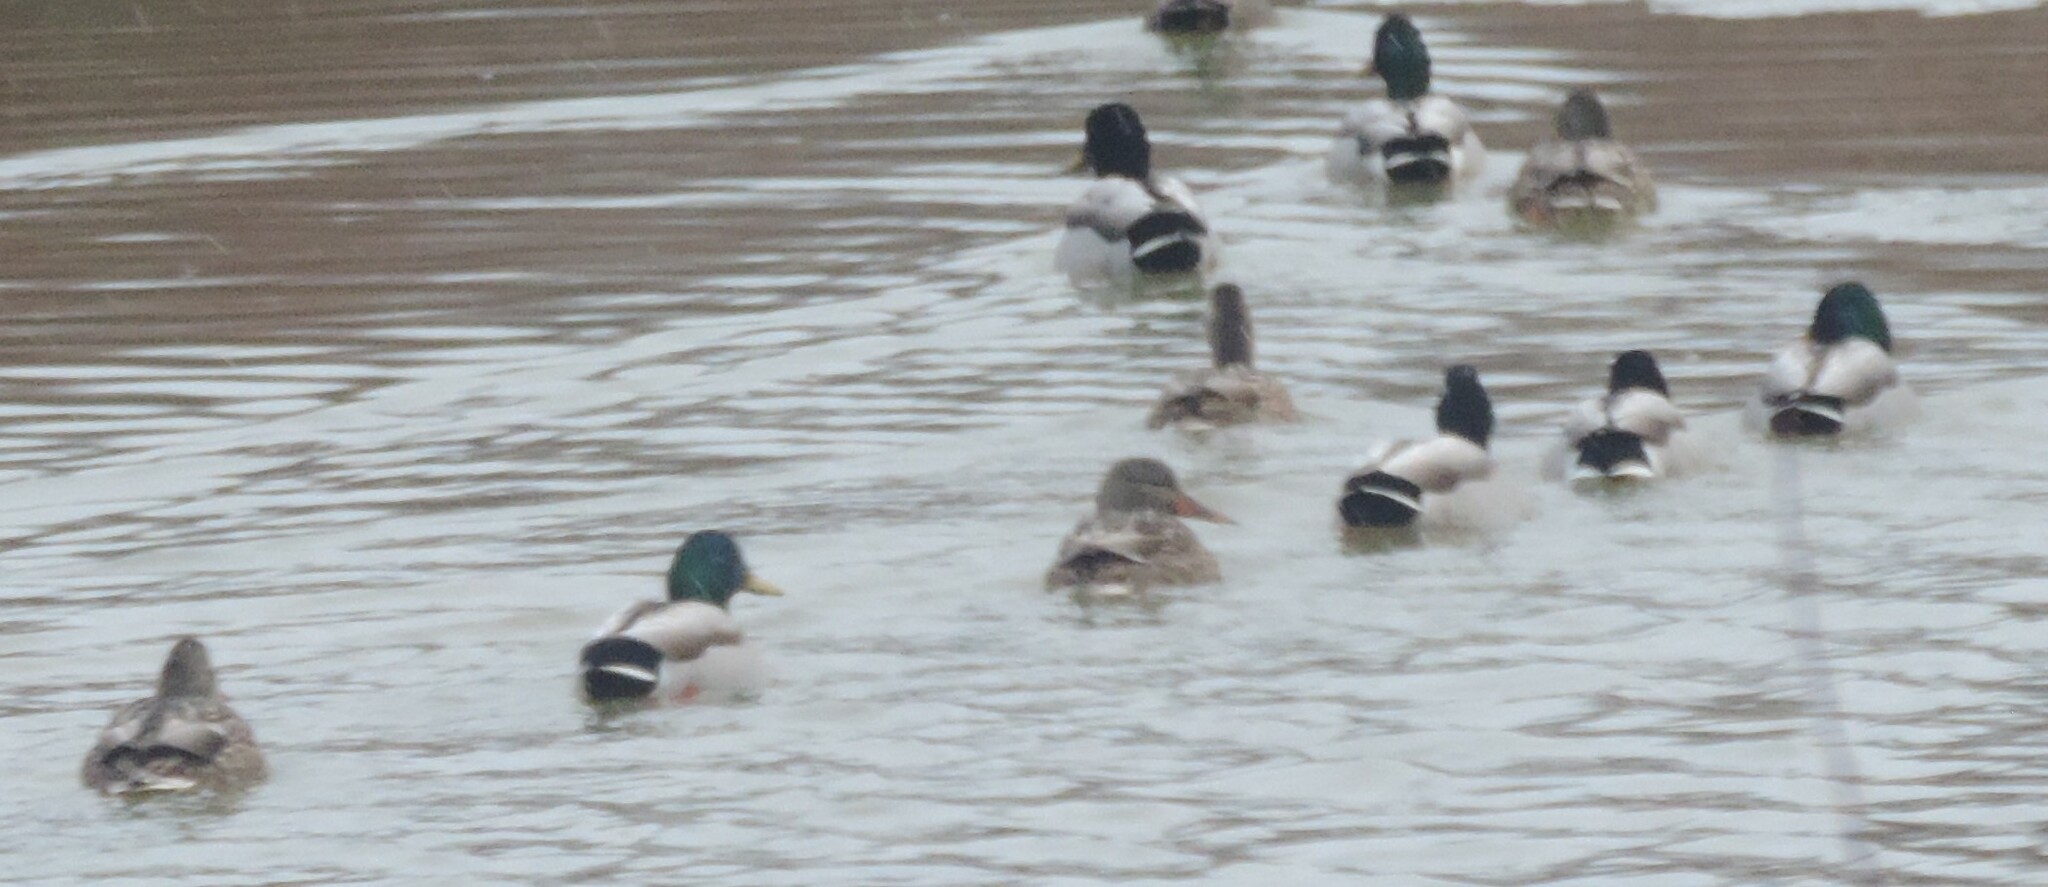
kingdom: Animalia
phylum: Chordata
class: Aves
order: Anseriformes
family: Anatidae
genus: Anas
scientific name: Anas platyrhynchos
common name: Mallard
